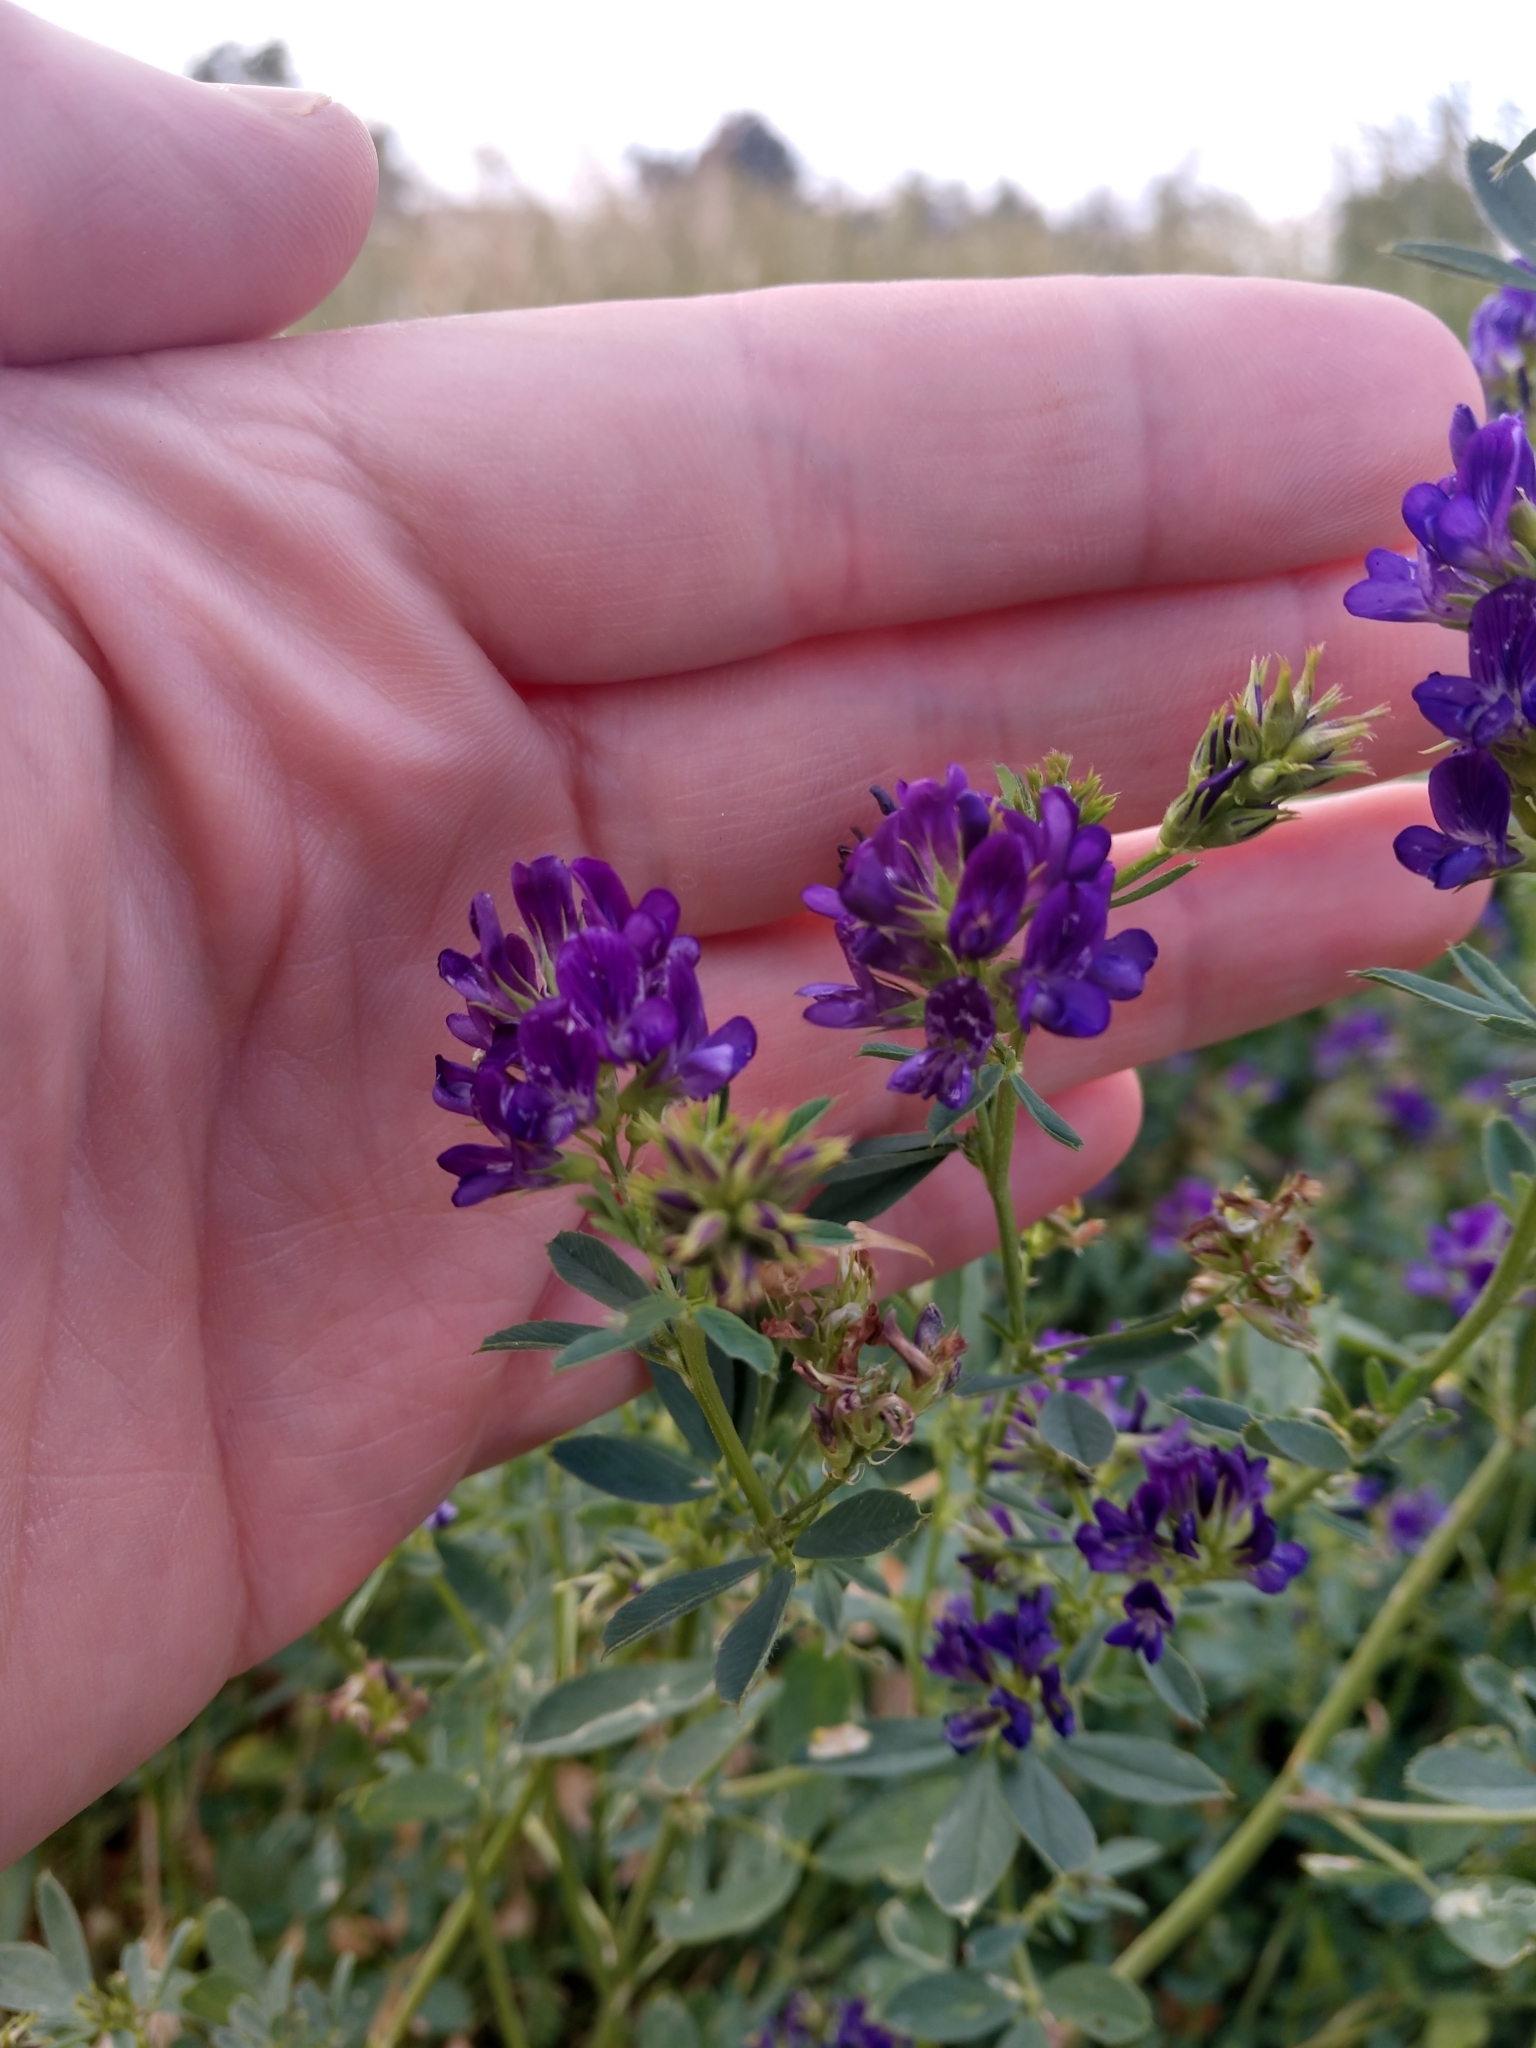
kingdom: Plantae
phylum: Tracheophyta
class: Magnoliopsida
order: Fabales
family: Fabaceae
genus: Medicago
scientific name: Medicago sativa
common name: Alfalfa
